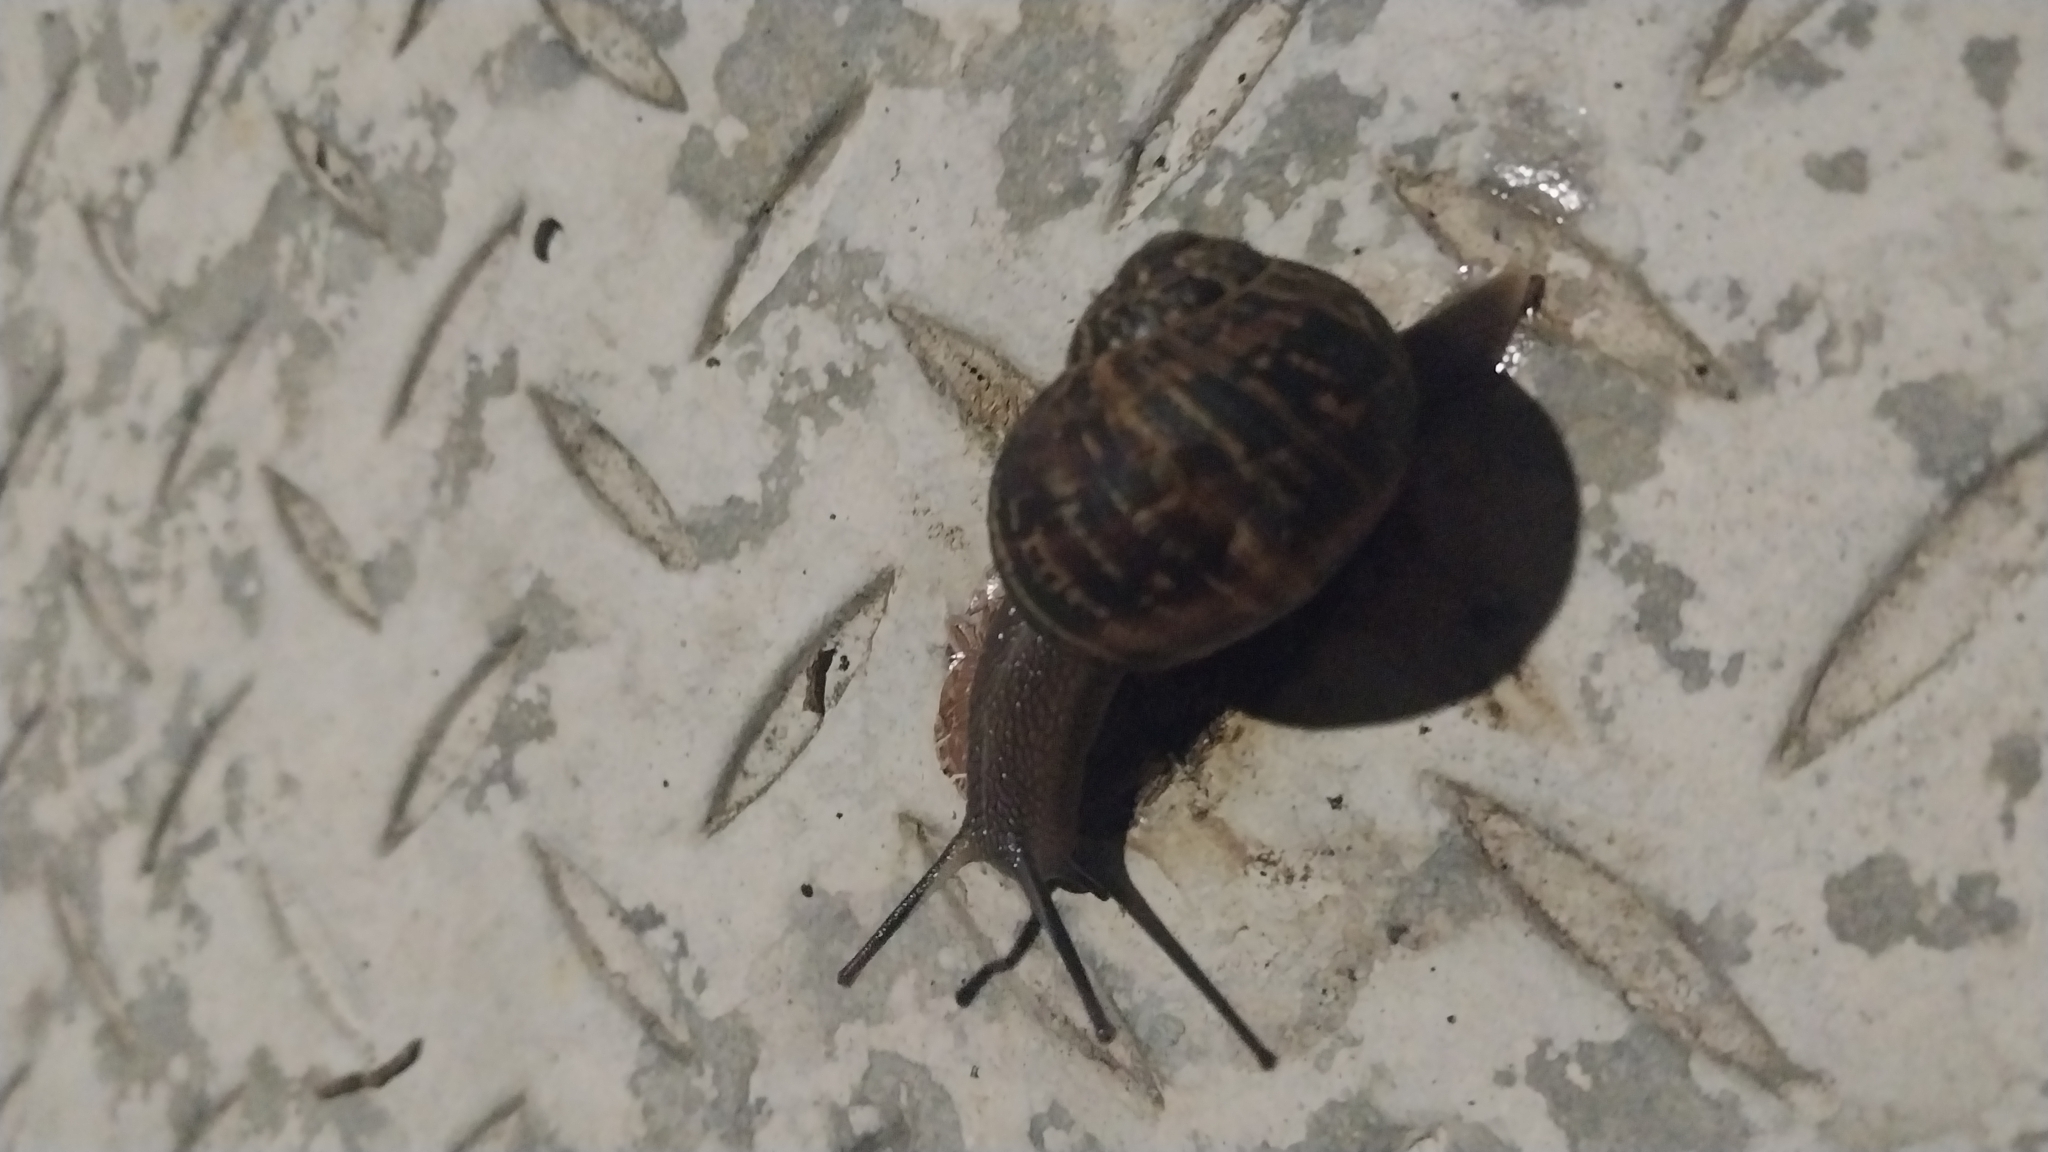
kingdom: Animalia
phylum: Mollusca
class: Gastropoda
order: Stylommatophora
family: Helicidae
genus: Cornu
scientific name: Cornu aspersum
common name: Brown garden snail
